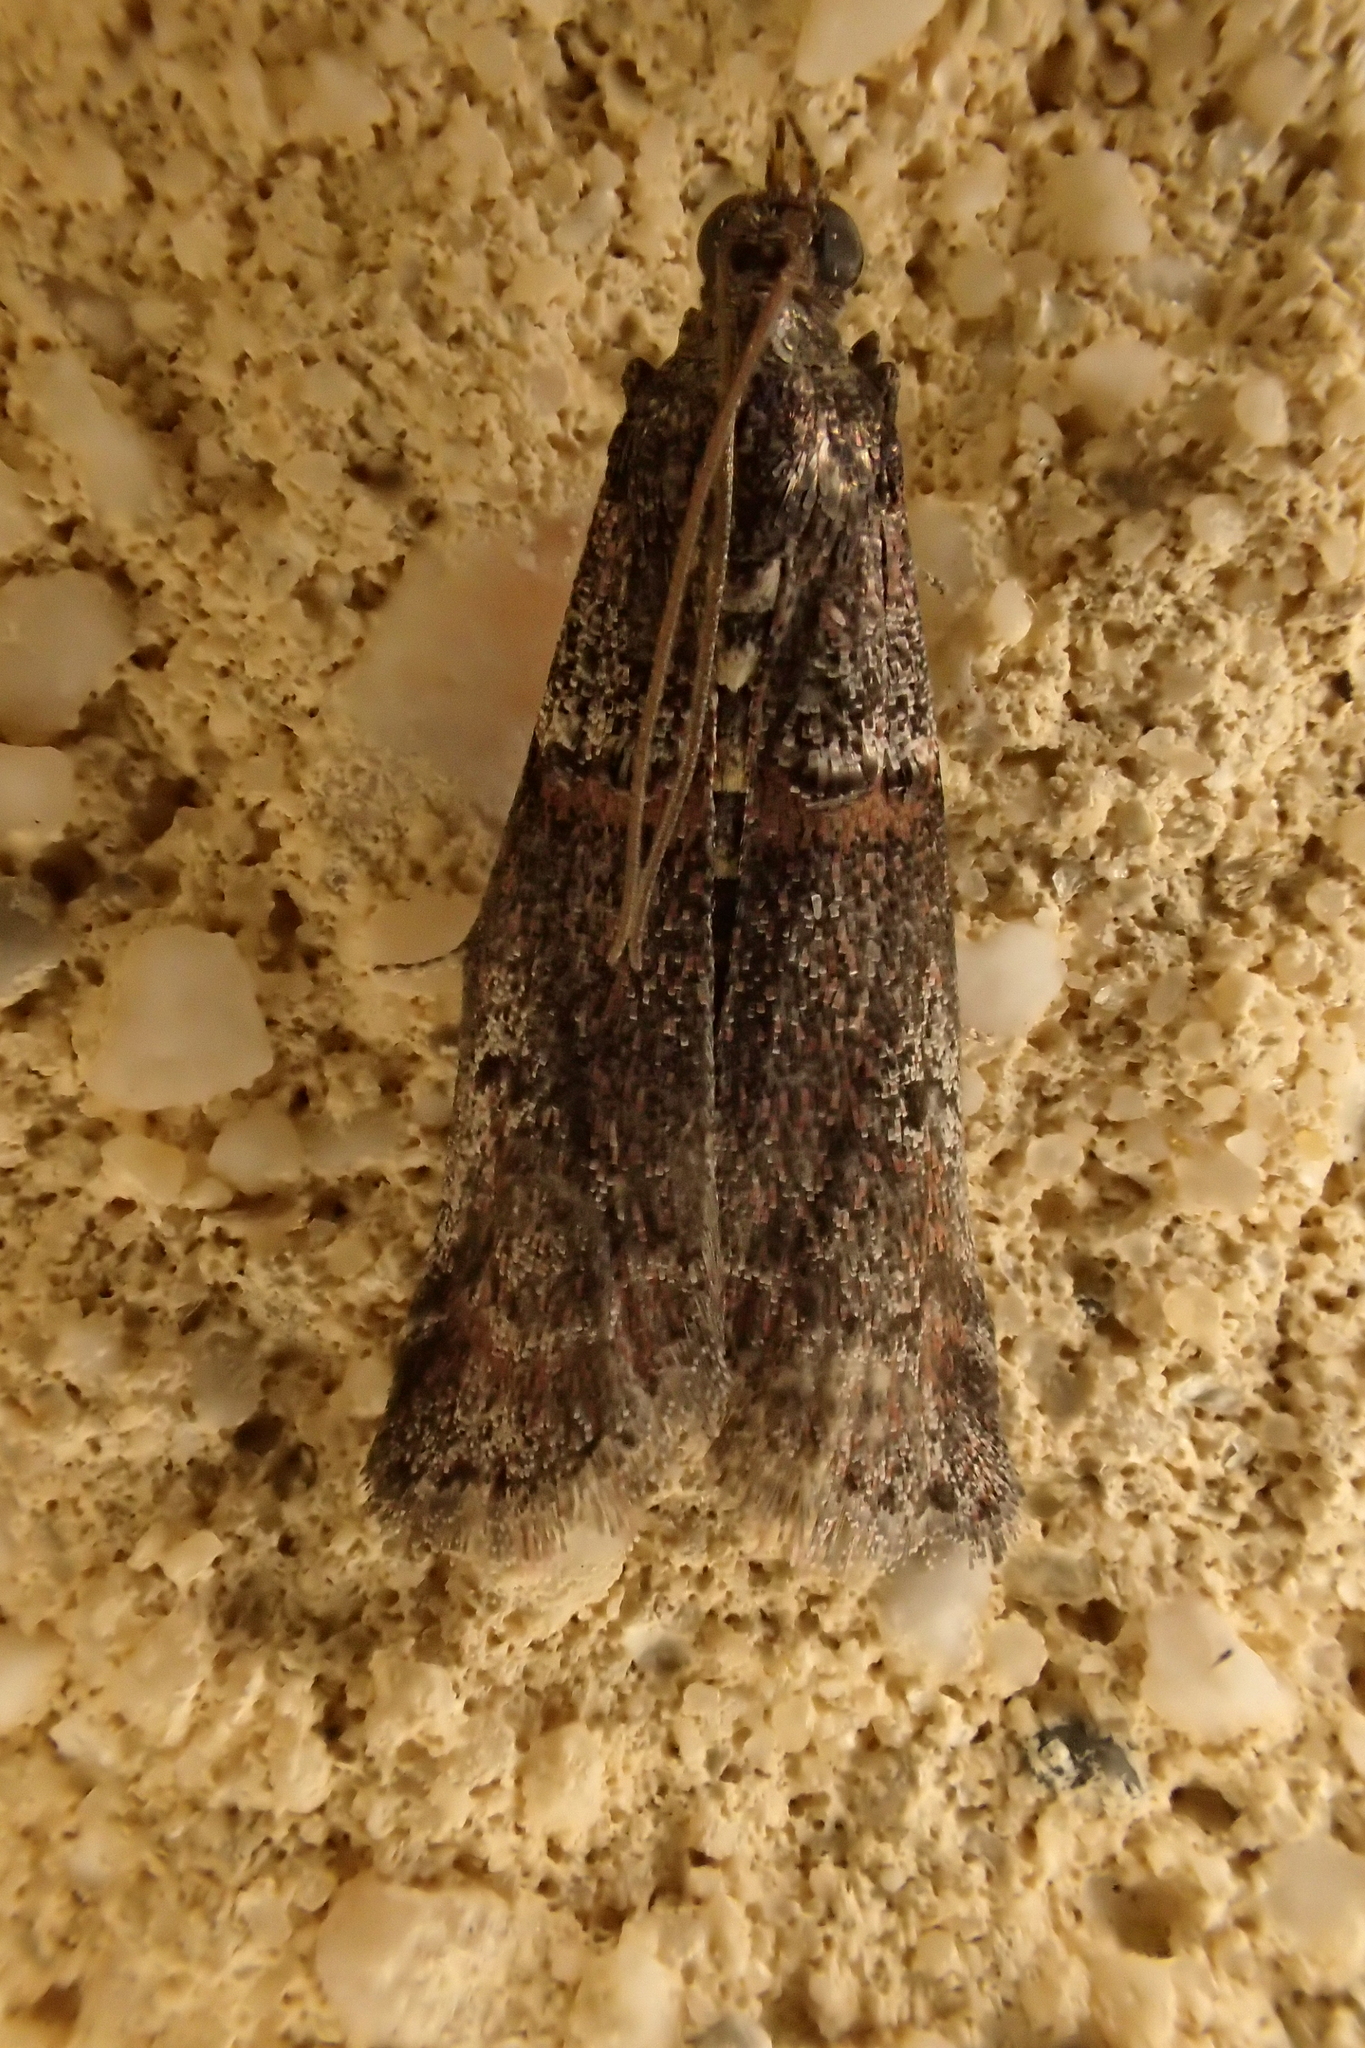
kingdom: Animalia
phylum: Arthropoda
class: Insecta
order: Lepidoptera
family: Pyralidae
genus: Acrobasis
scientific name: Acrobasis obliqua
